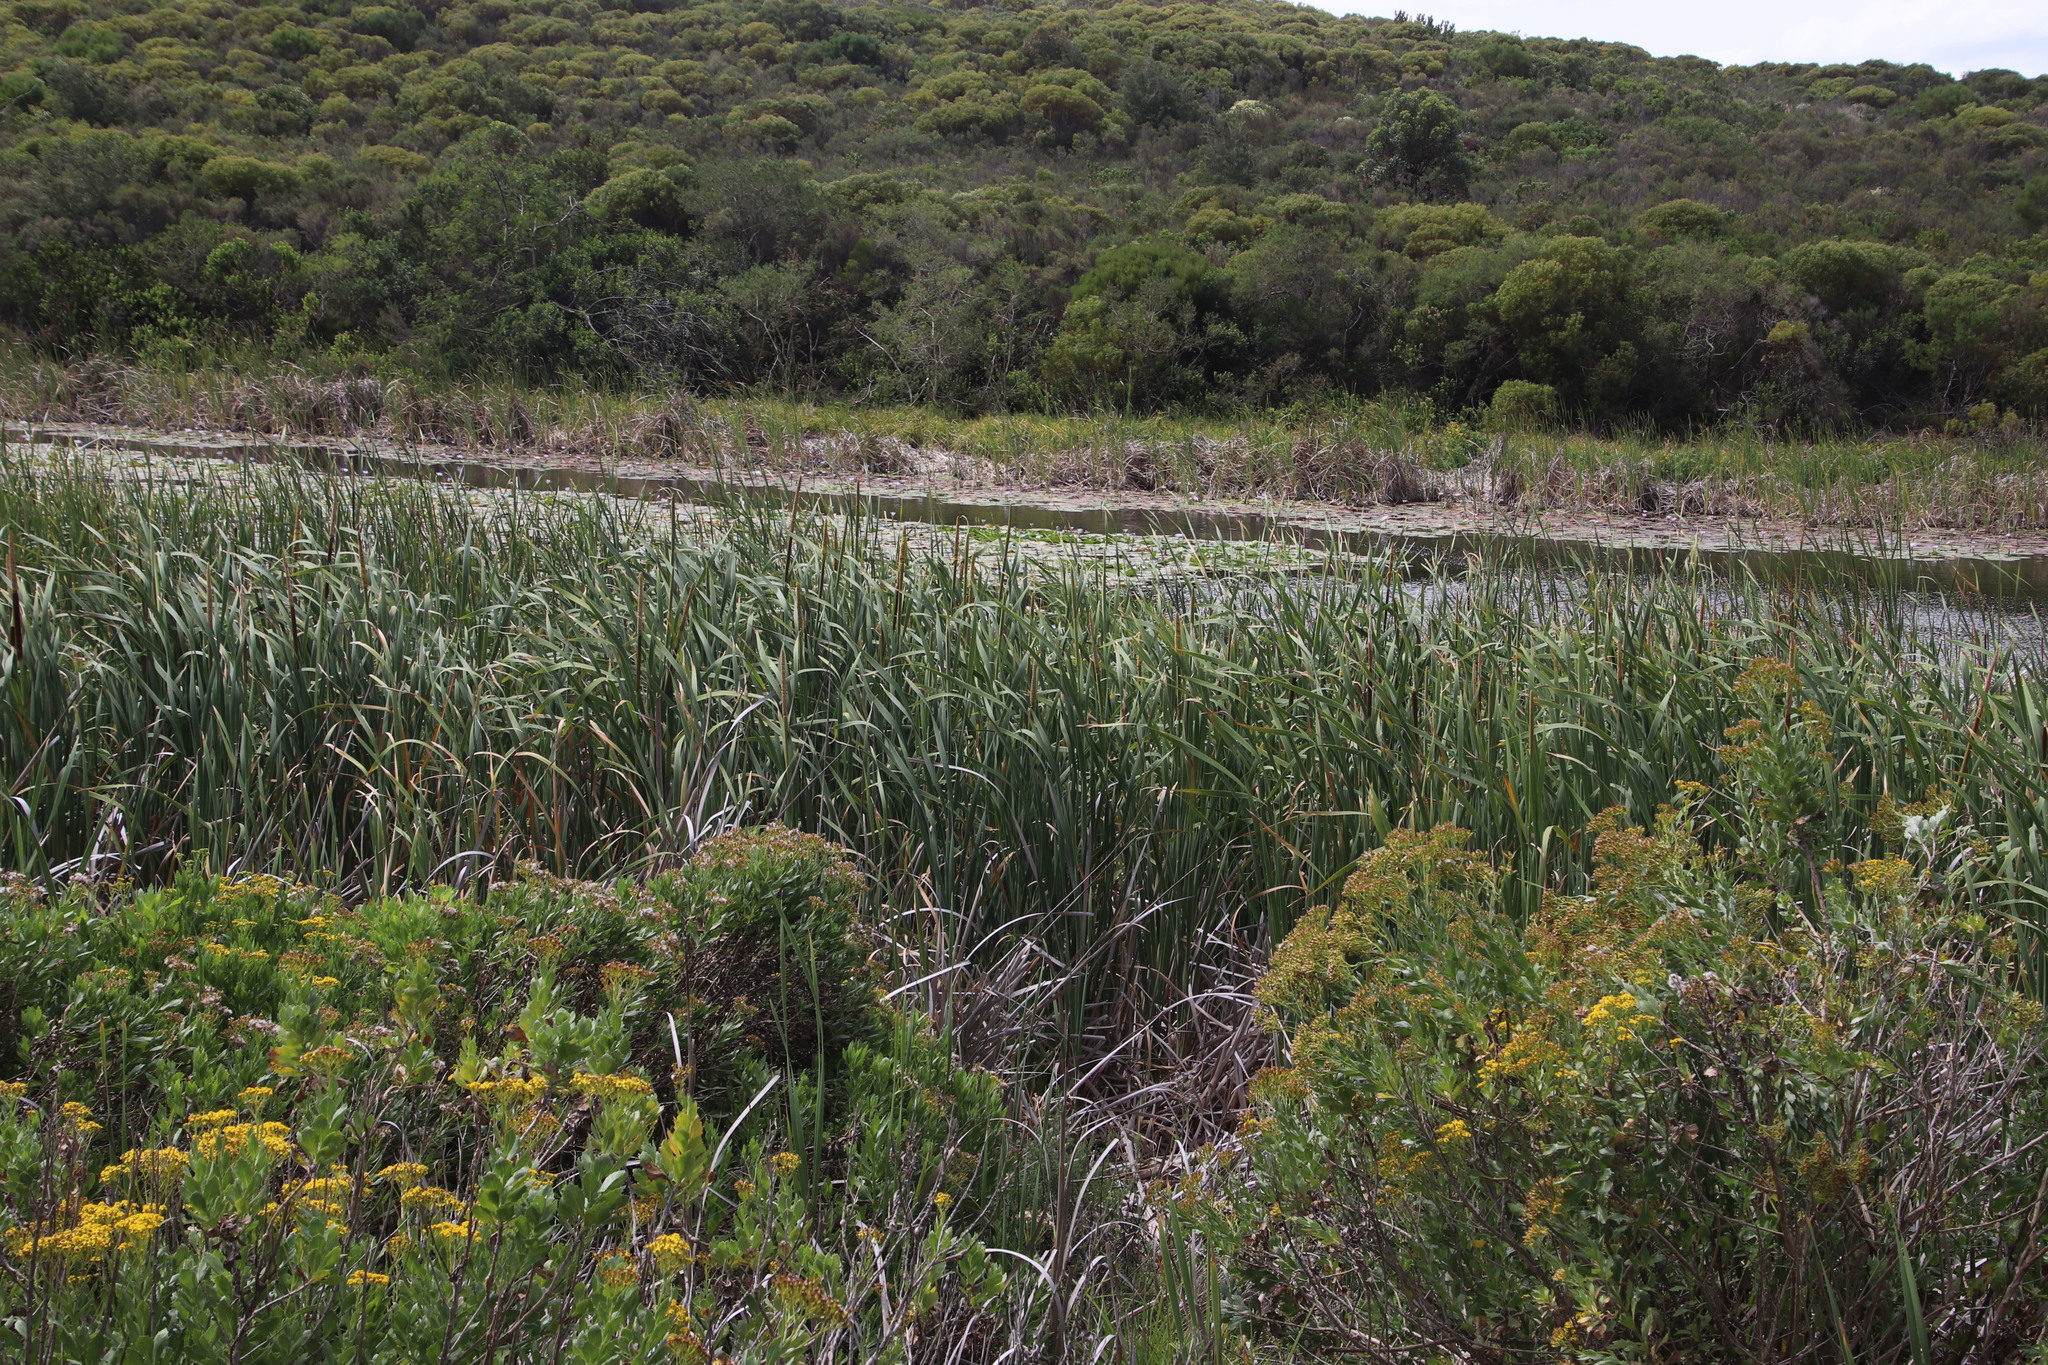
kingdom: Plantae
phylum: Tracheophyta
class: Liliopsida
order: Poales
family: Typhaceae
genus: Typha
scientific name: Typha capensis
